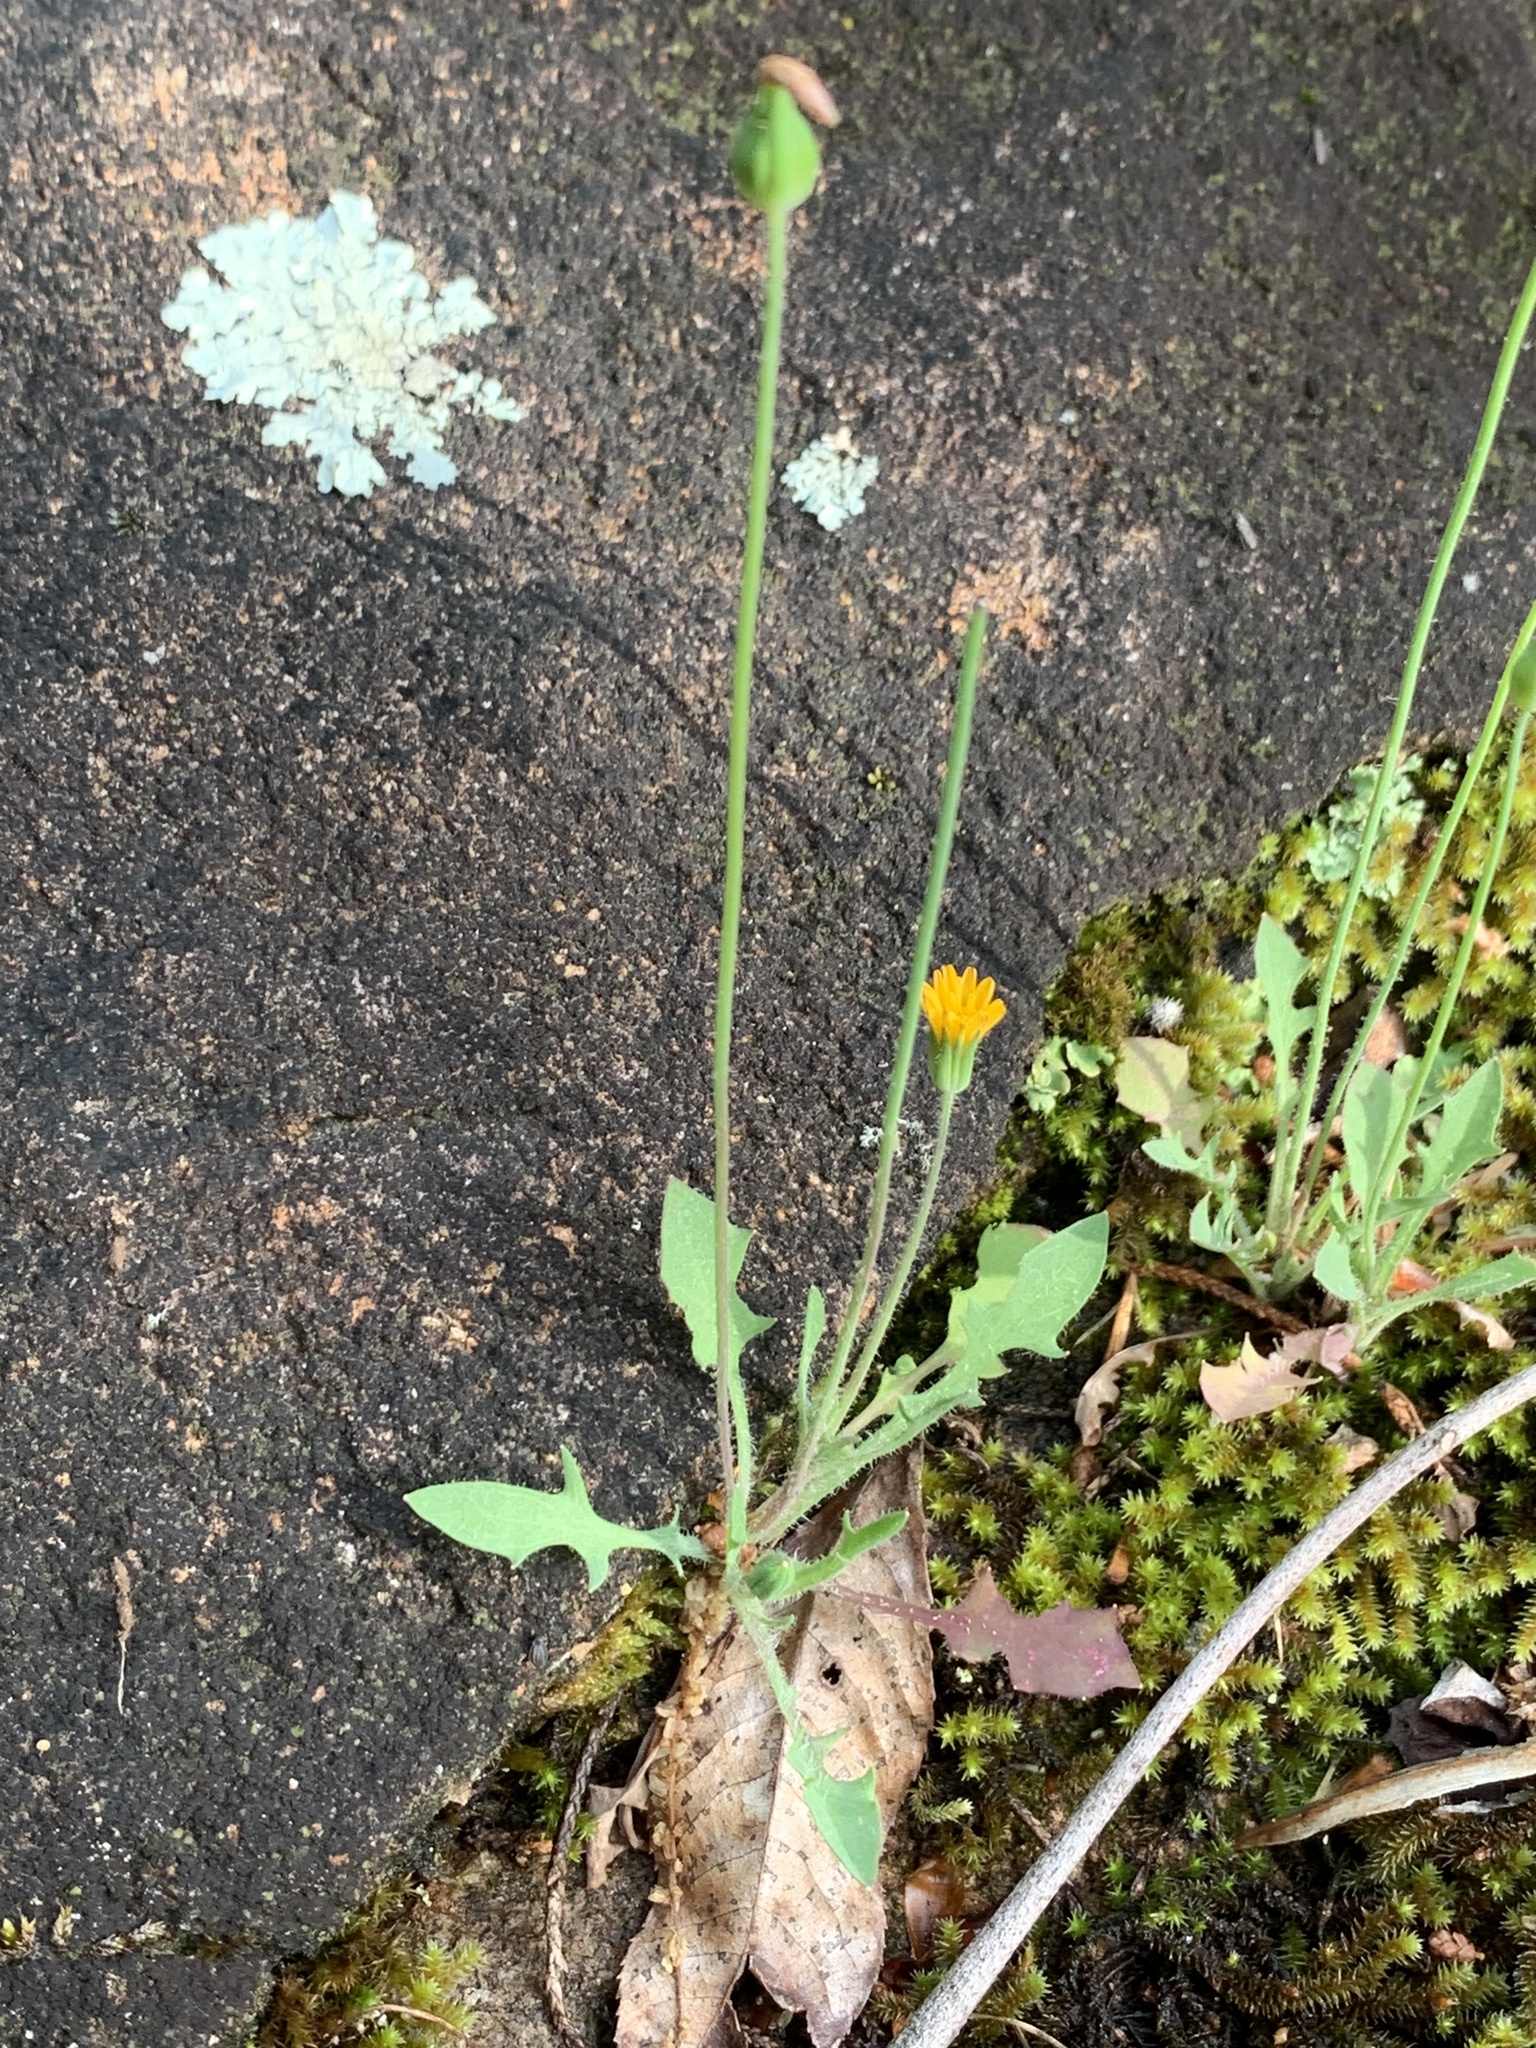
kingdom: Plantae
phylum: Tracheophyta
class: Magnoliopsida
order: Asterales
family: Asteraceae
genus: Krigia
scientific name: Krigia virginica
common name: Virginia dwarf-dandelion
